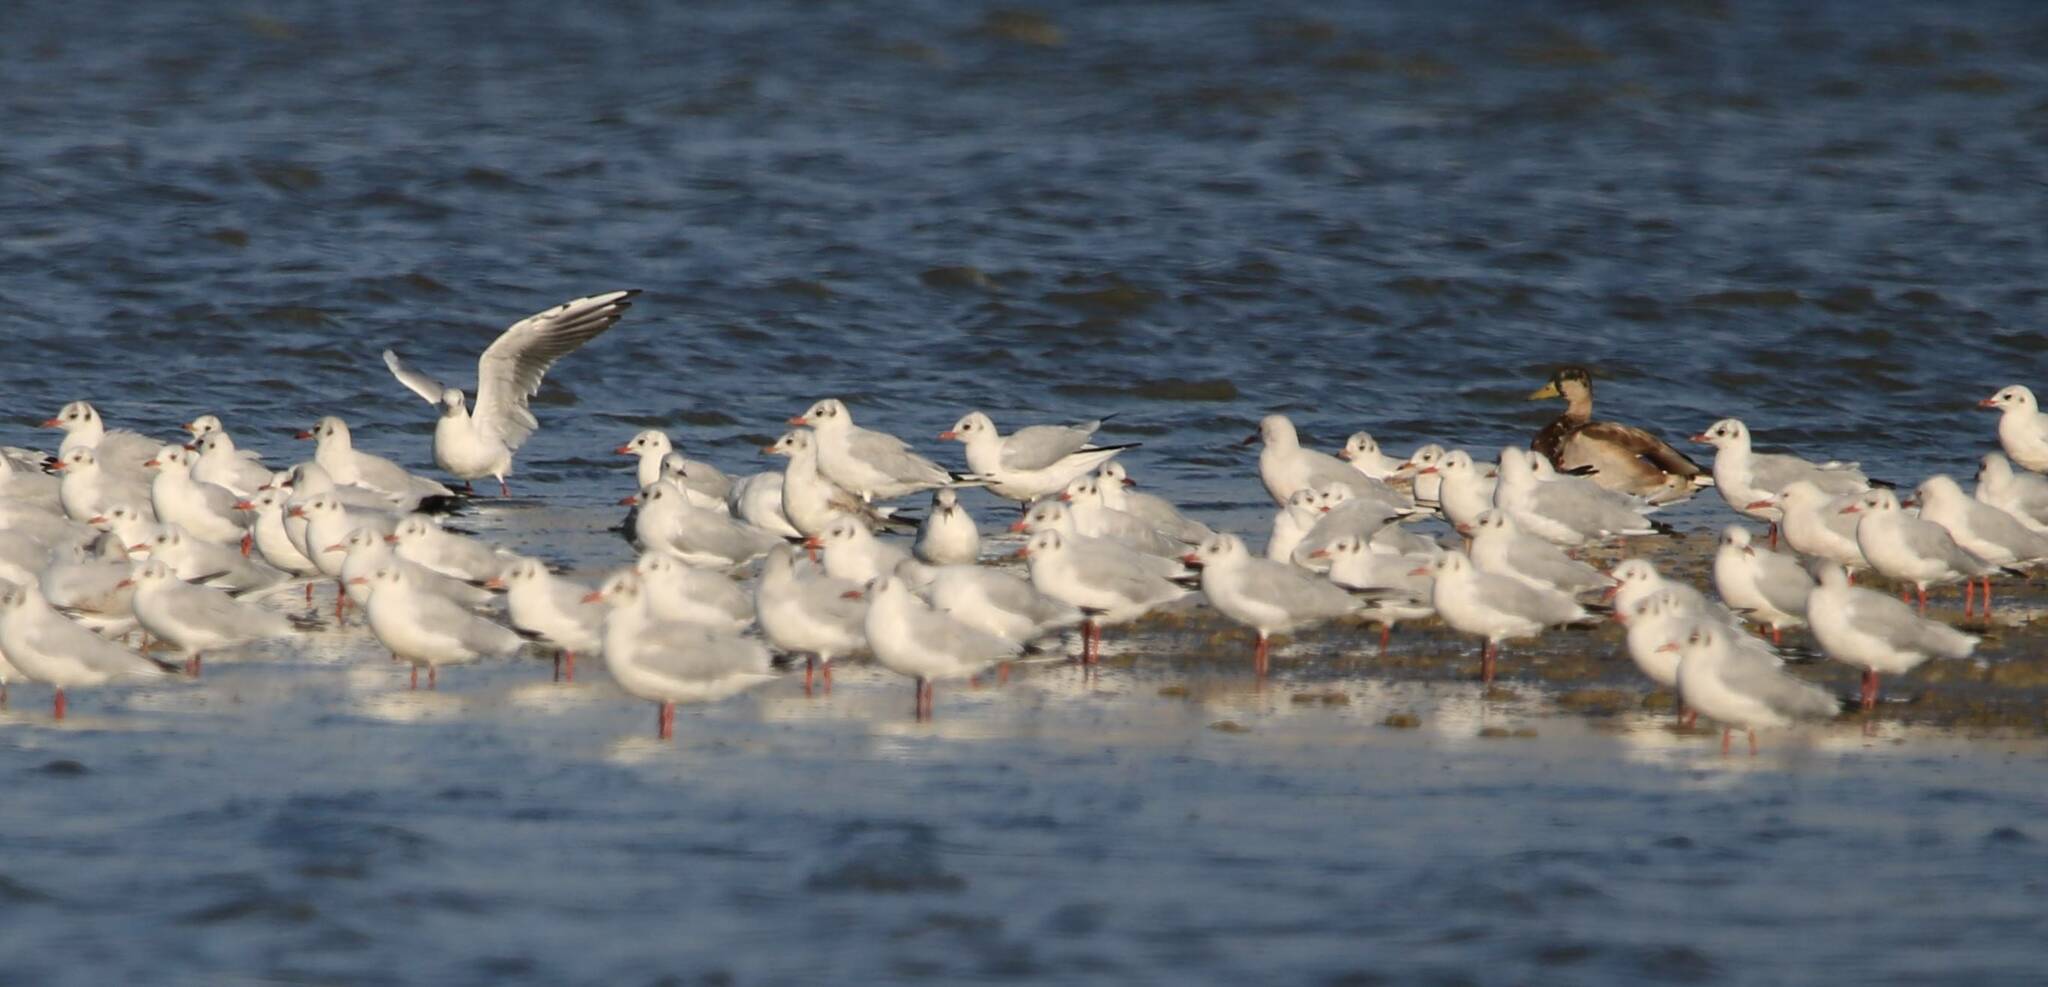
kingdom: Animalia
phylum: Chordata
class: Aves
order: Charadriiformes
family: Laridae
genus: Chroicocephalus
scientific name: Chroicocephalus ridibundus
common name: Black-headed gull
